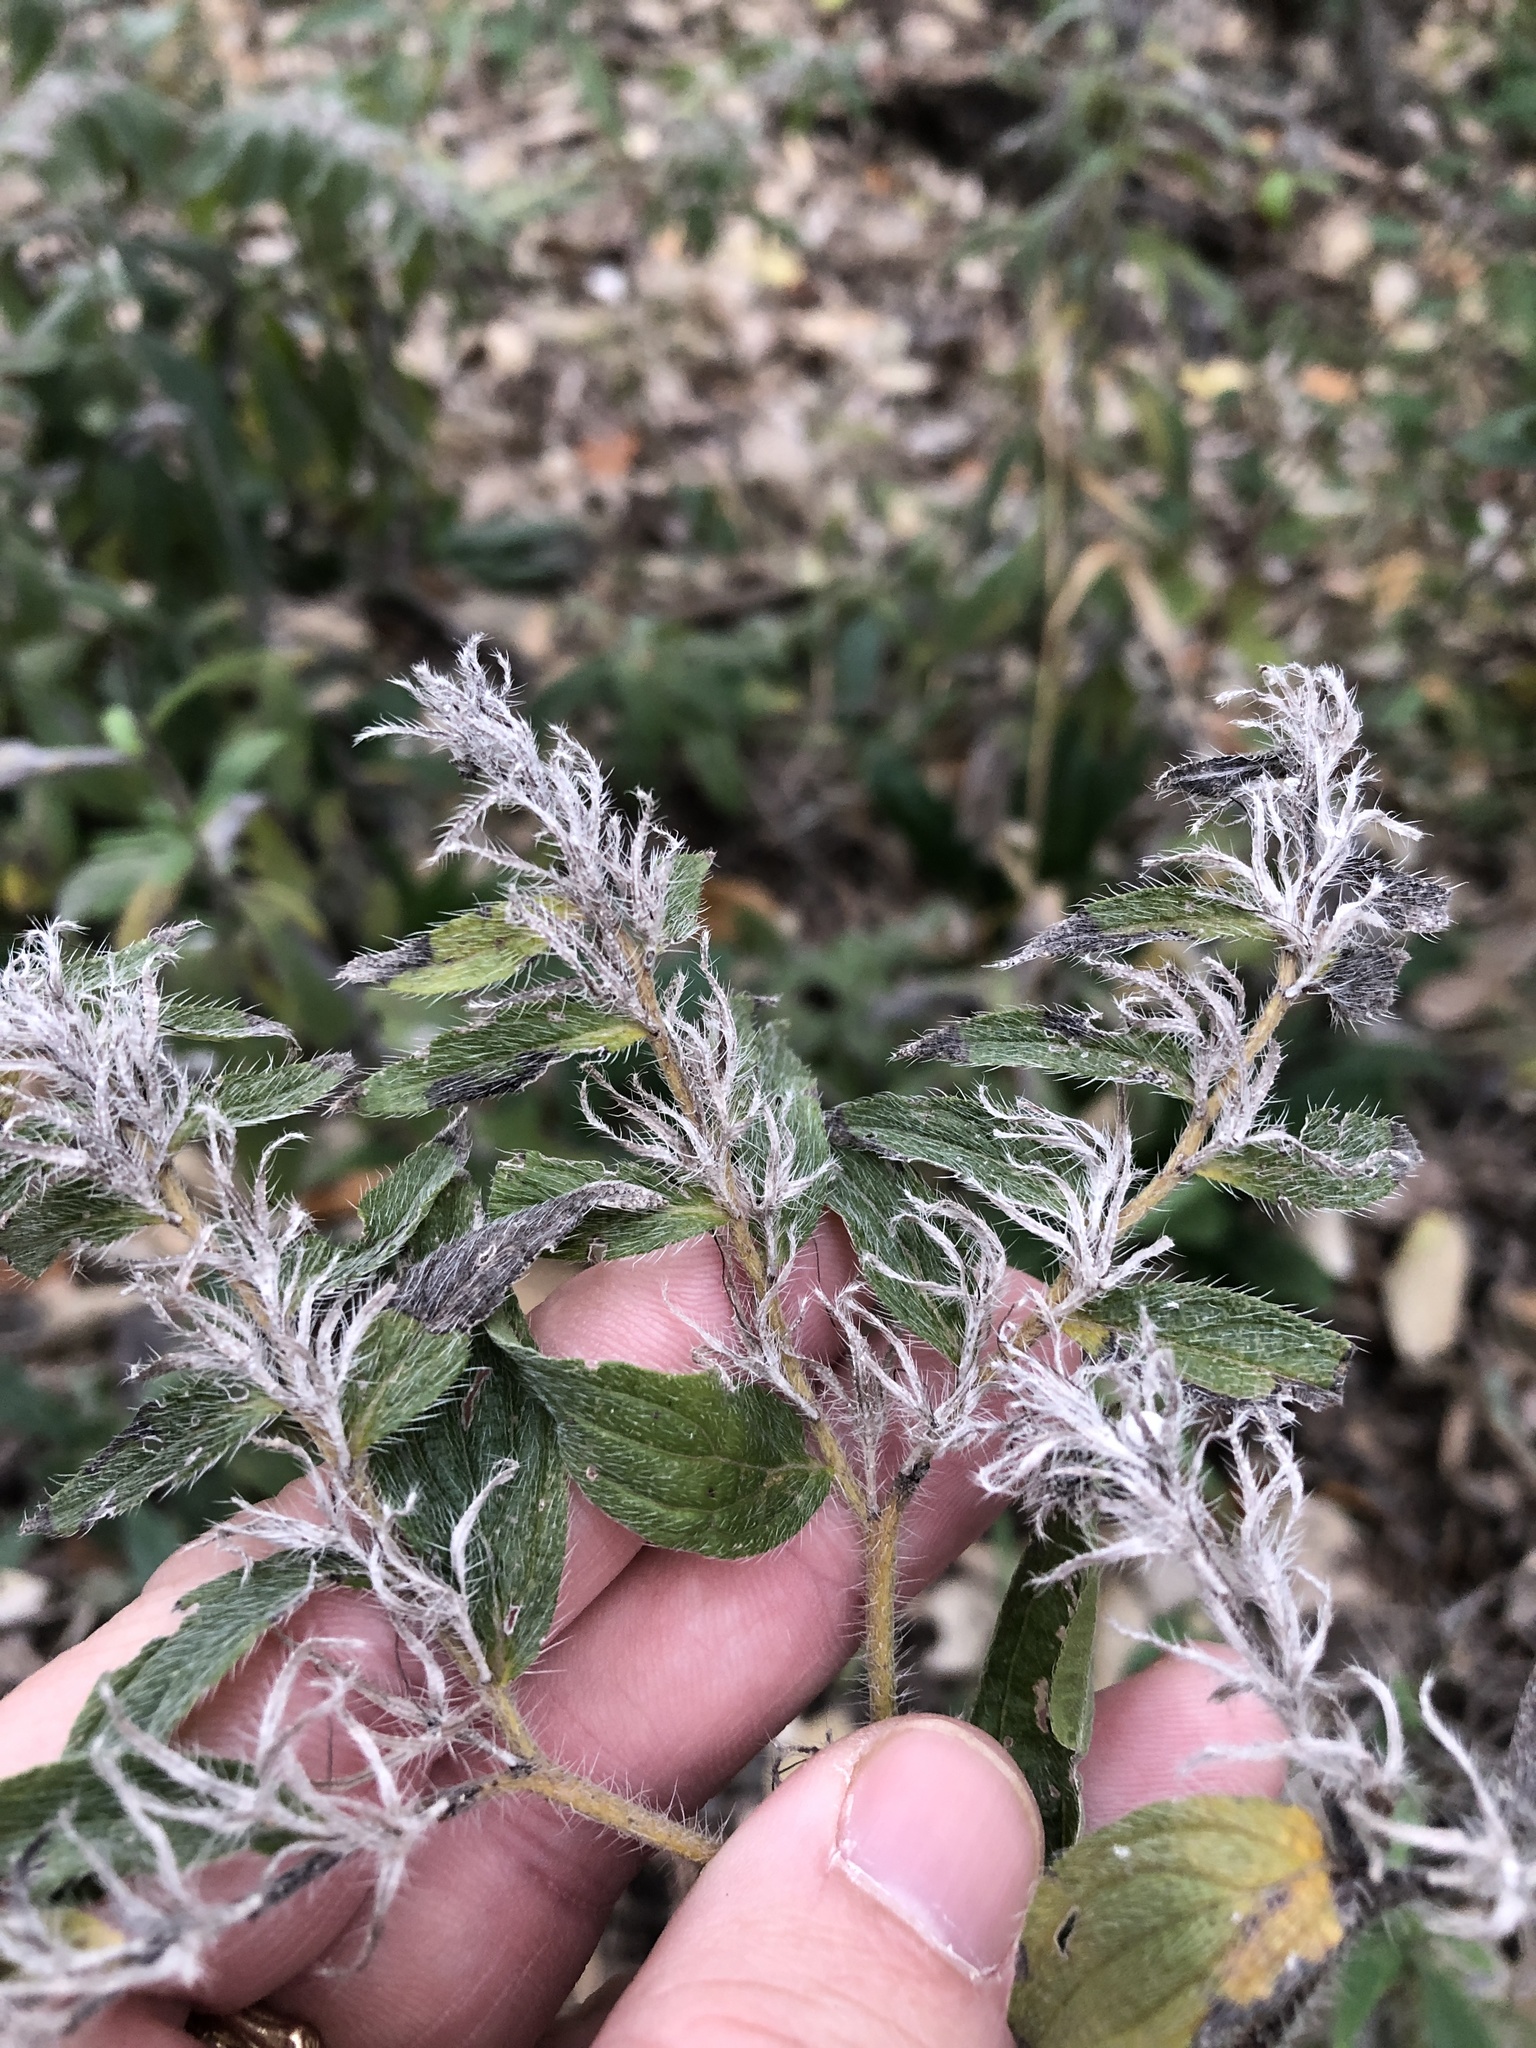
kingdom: Plantae
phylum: Tracheophyta
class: Magnoliopsida
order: Boraginales
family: Boraginaceae
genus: Lithospermum
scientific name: Lithospermum caroliniense
